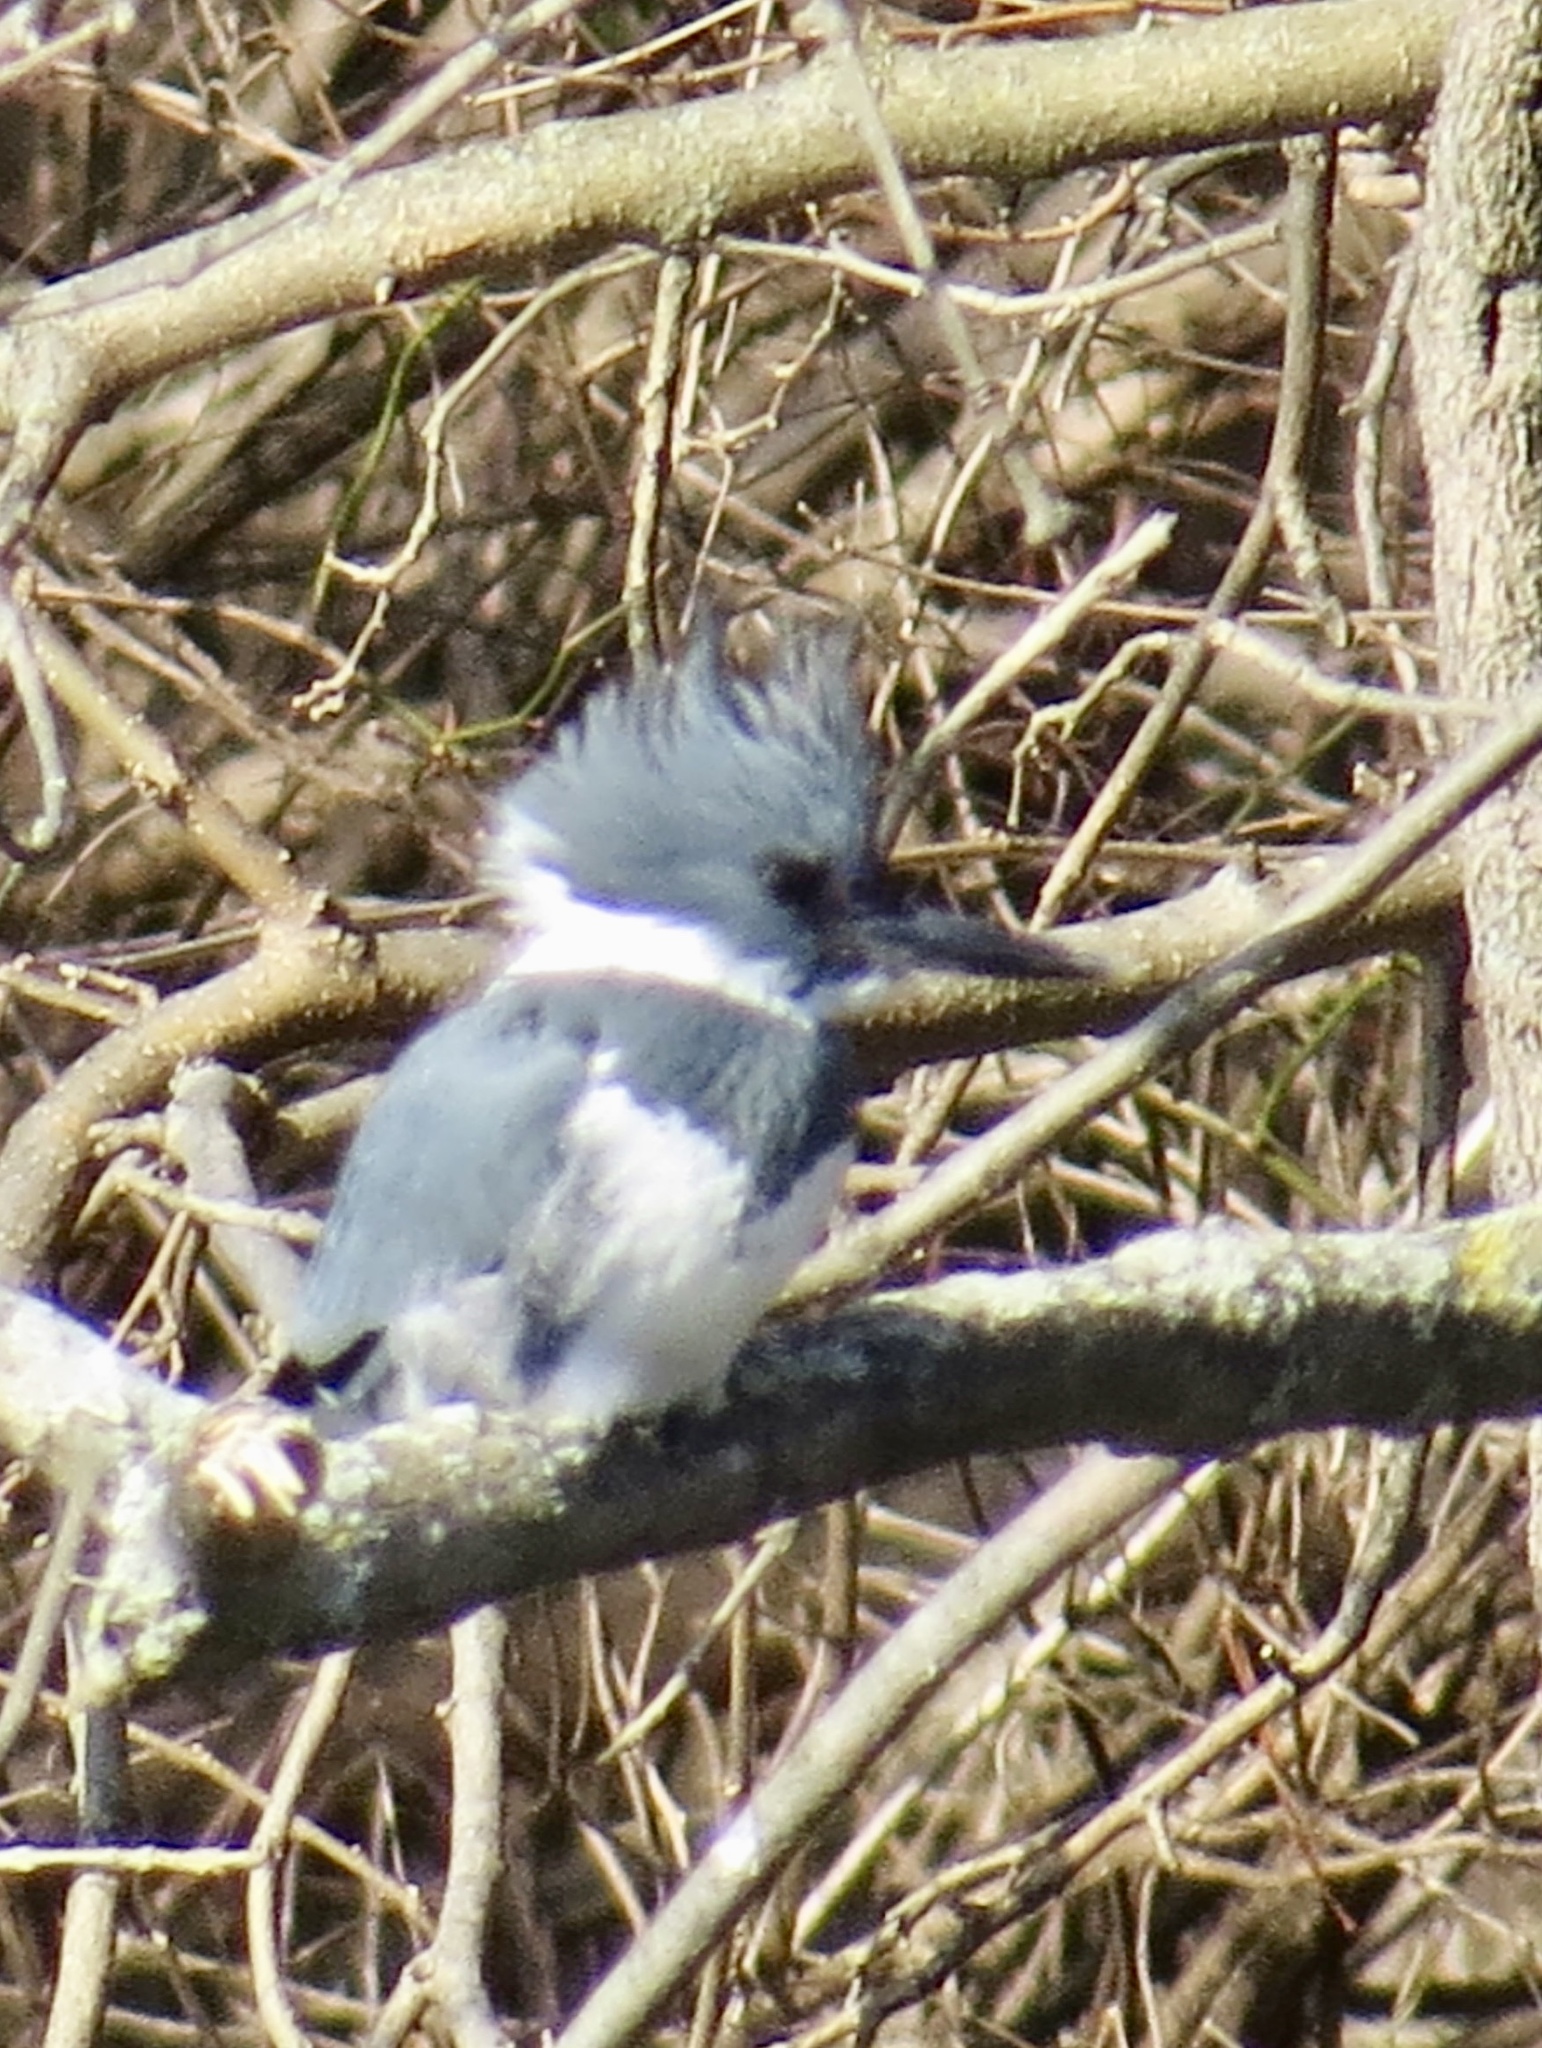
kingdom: Animalia
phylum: Chordata
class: Aves
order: Coraciiformes
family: Alcedinidae
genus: Megaceryle
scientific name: Megaceryle alcyon
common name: Belted kingfisher
